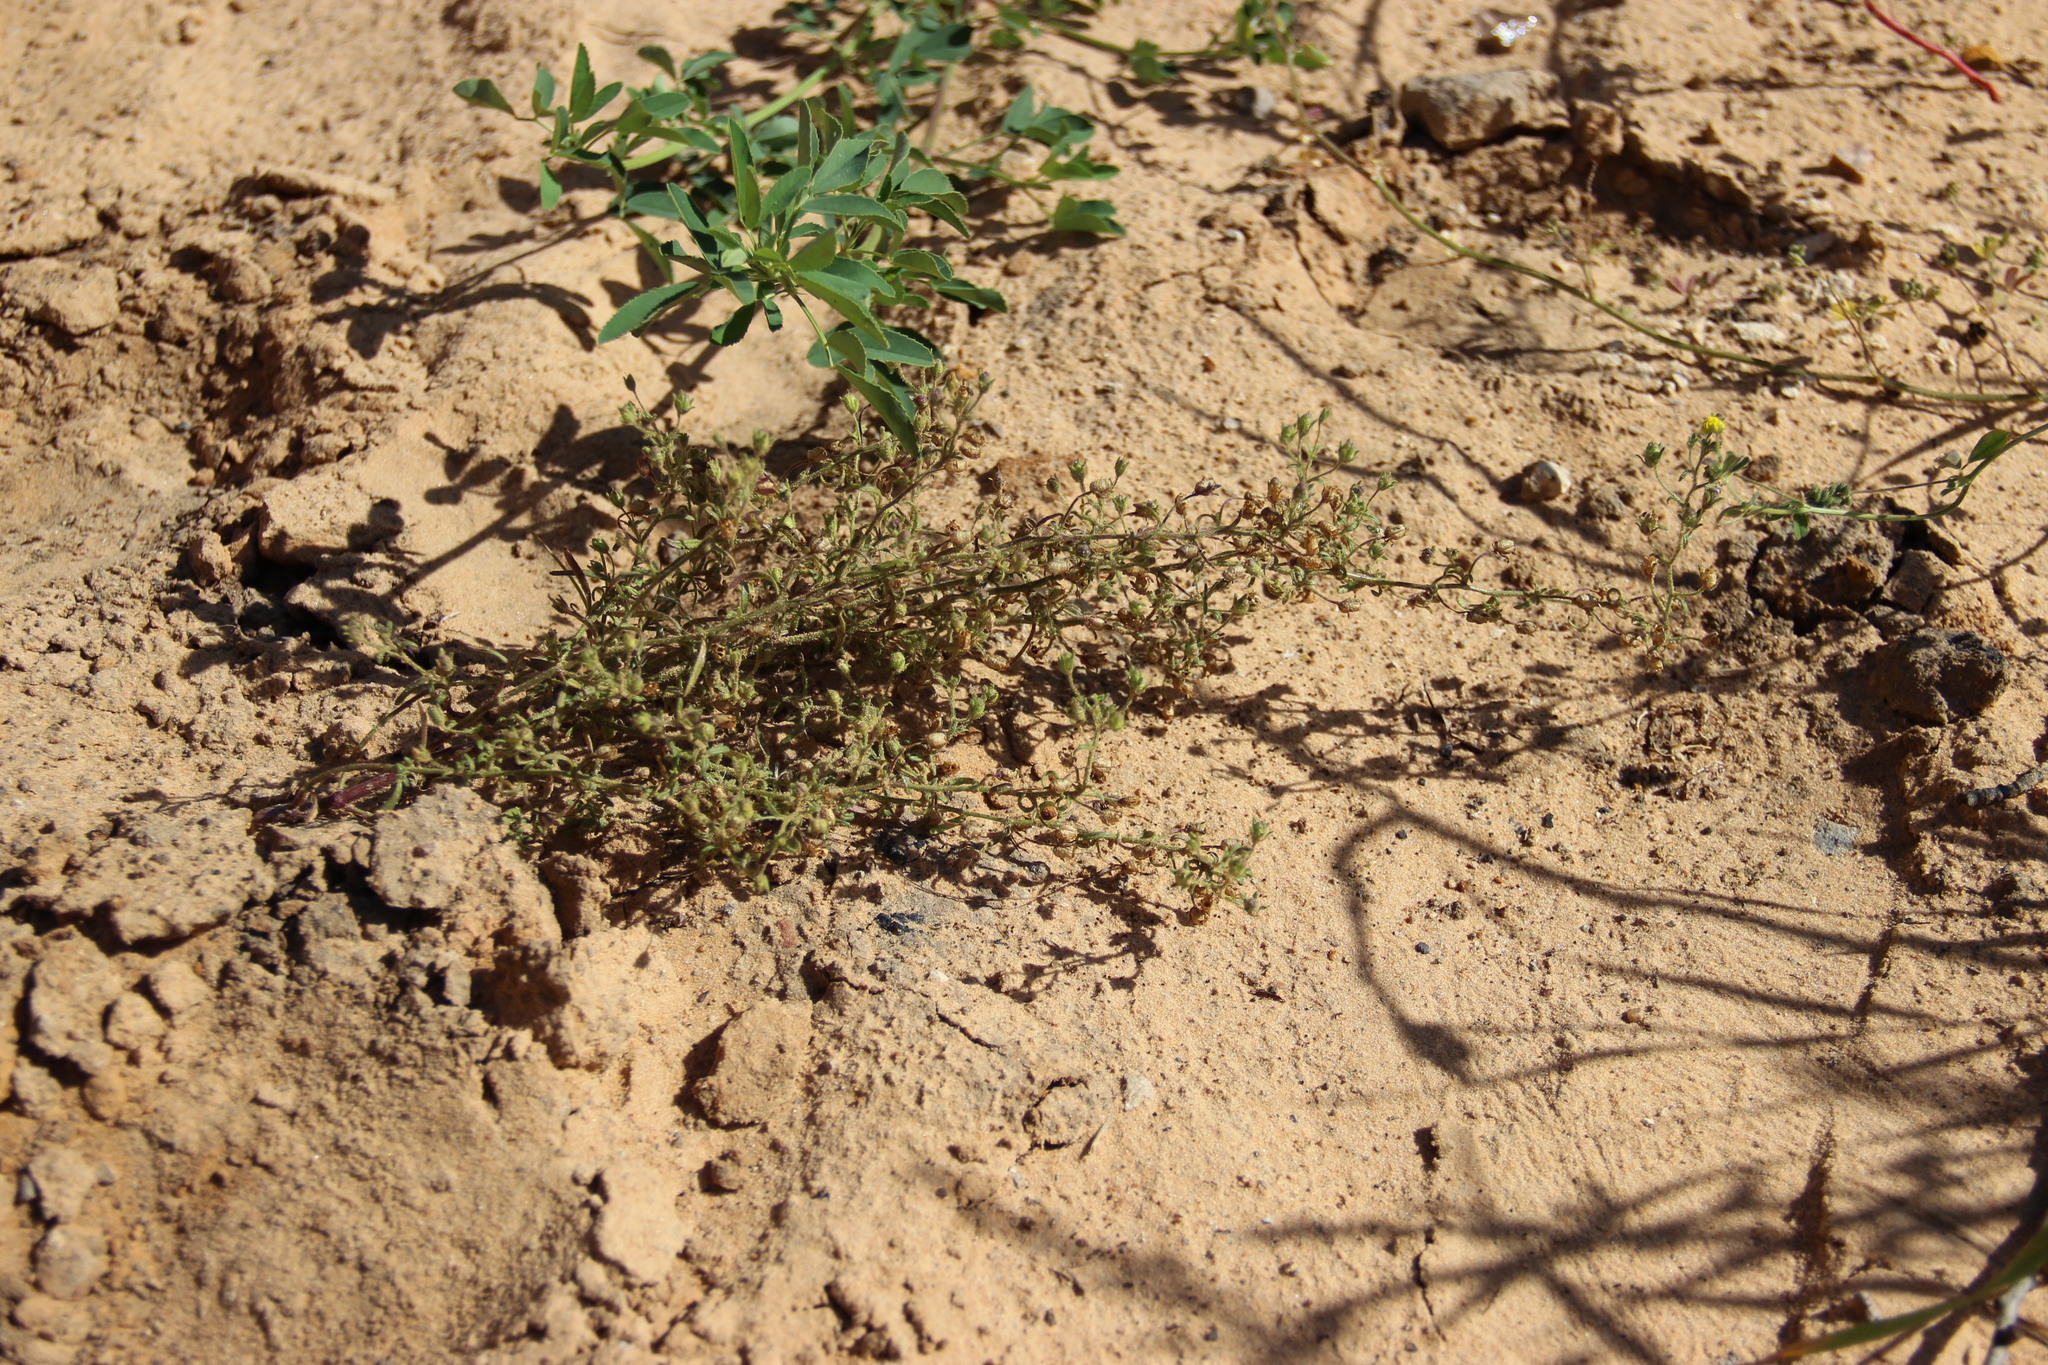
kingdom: Plantae
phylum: Tracheophyta
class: Magnoliopsida
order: Lamiales
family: Plantaginaceae
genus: Chaenorhinum
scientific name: Chaenorhinum minus
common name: Dwarf snapdragon
